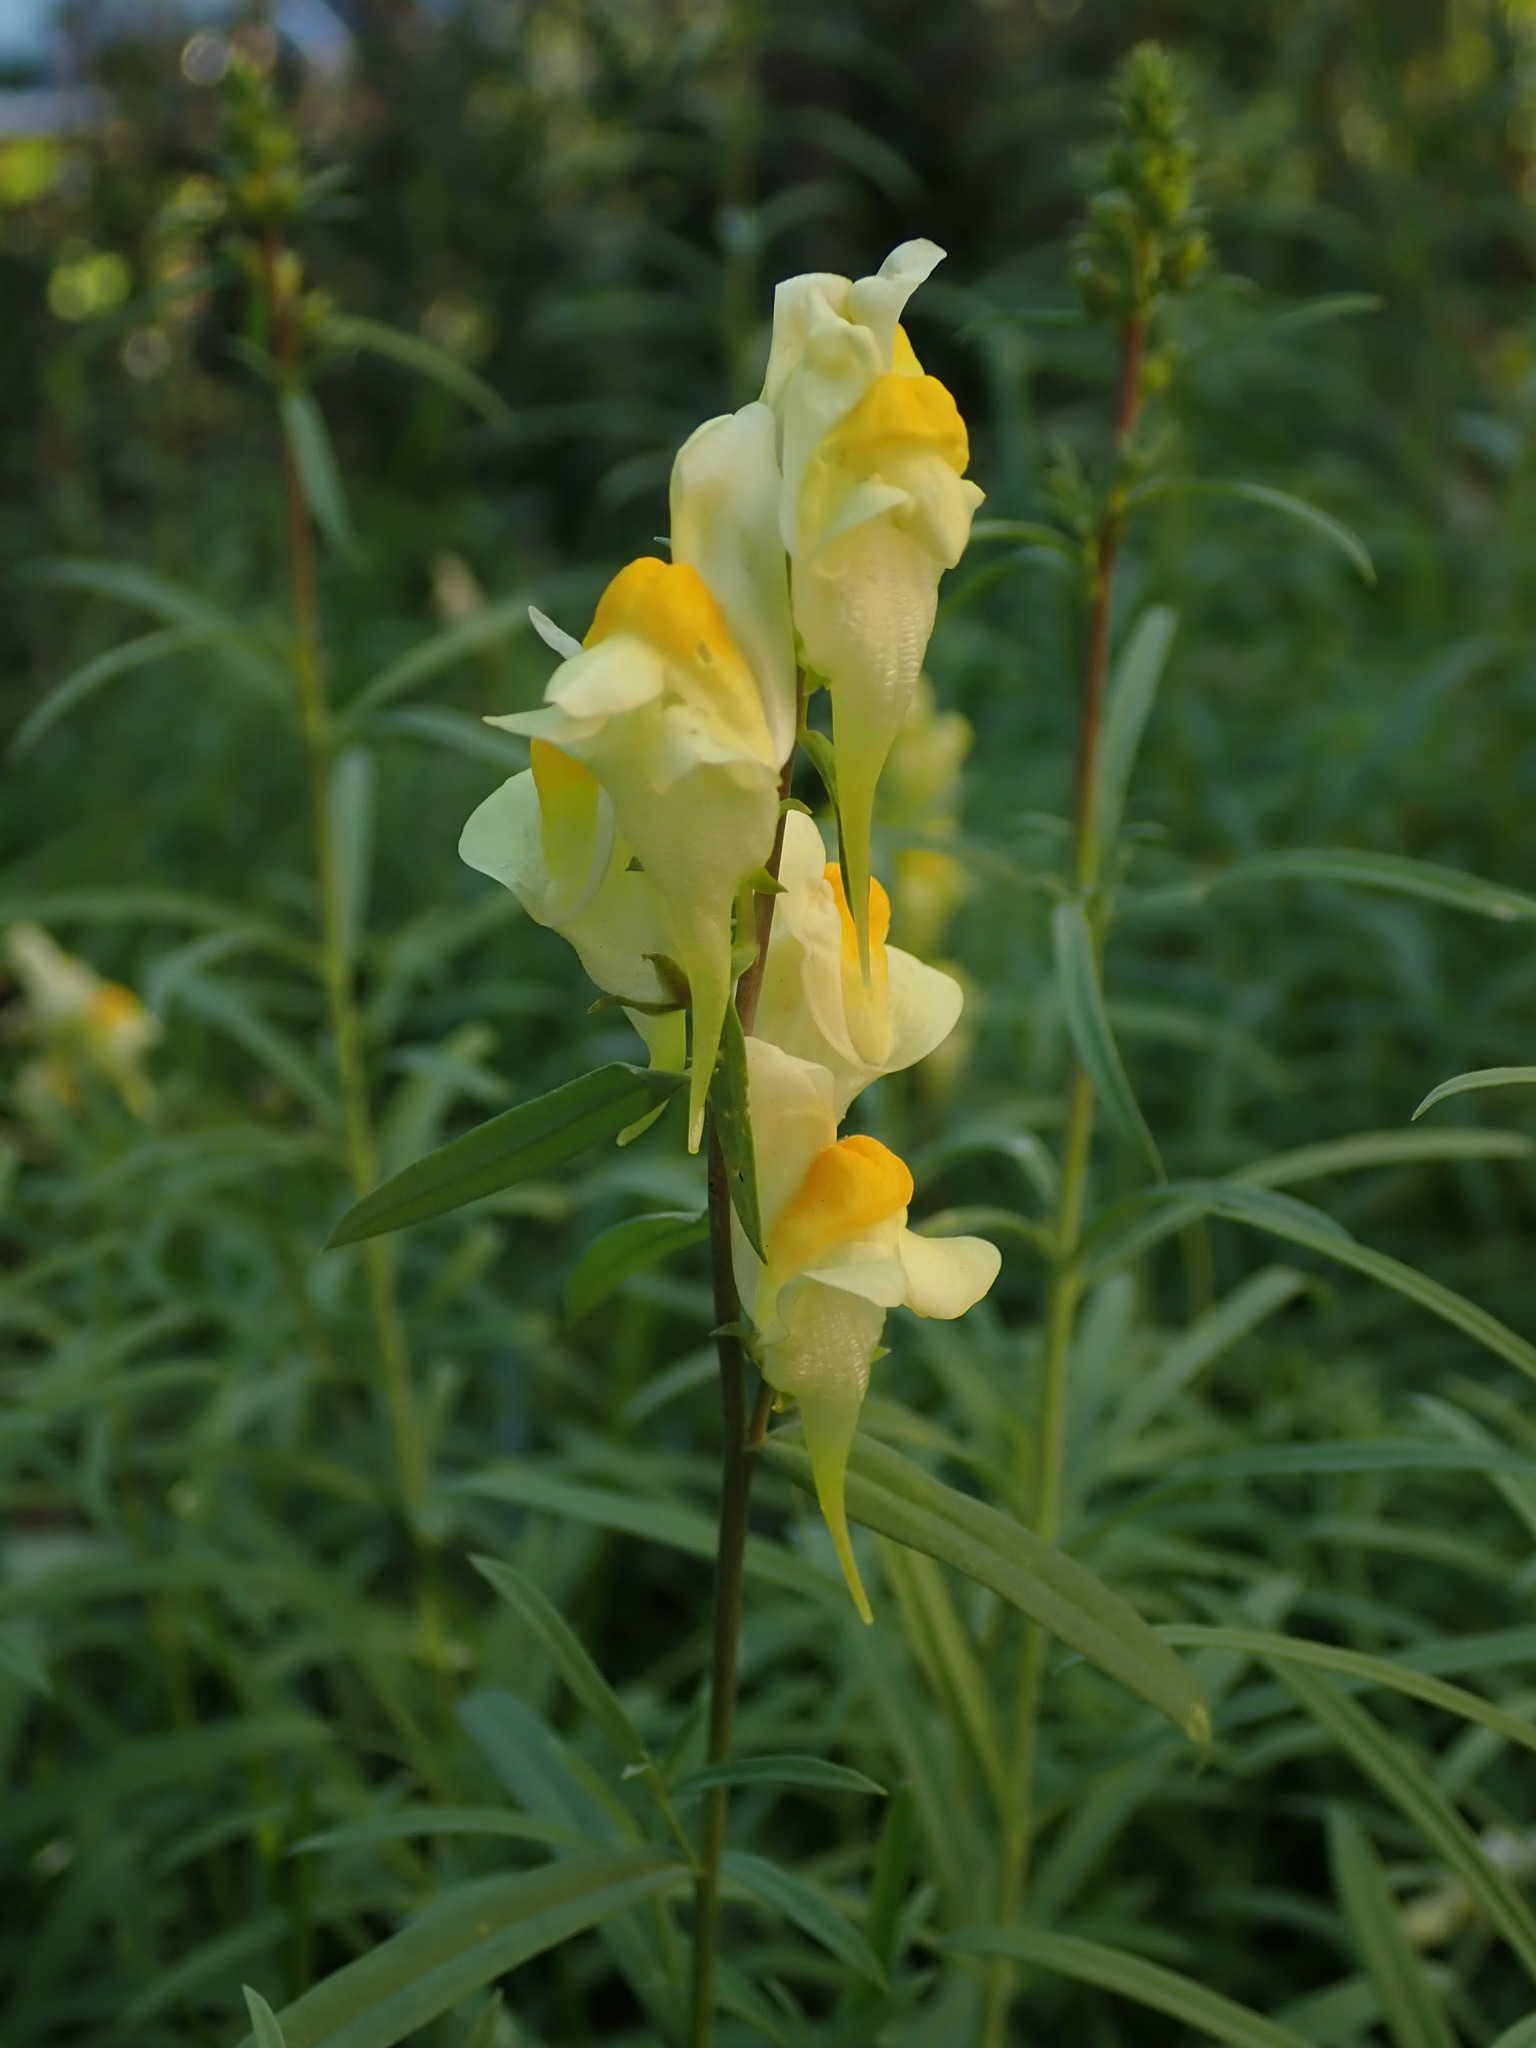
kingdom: Plantae
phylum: Tracheophyta
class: Magnoliopsida
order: Lamiales
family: Plantaginaceae
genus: Linaria
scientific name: Linaria vulgaris
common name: Butter and eggs
